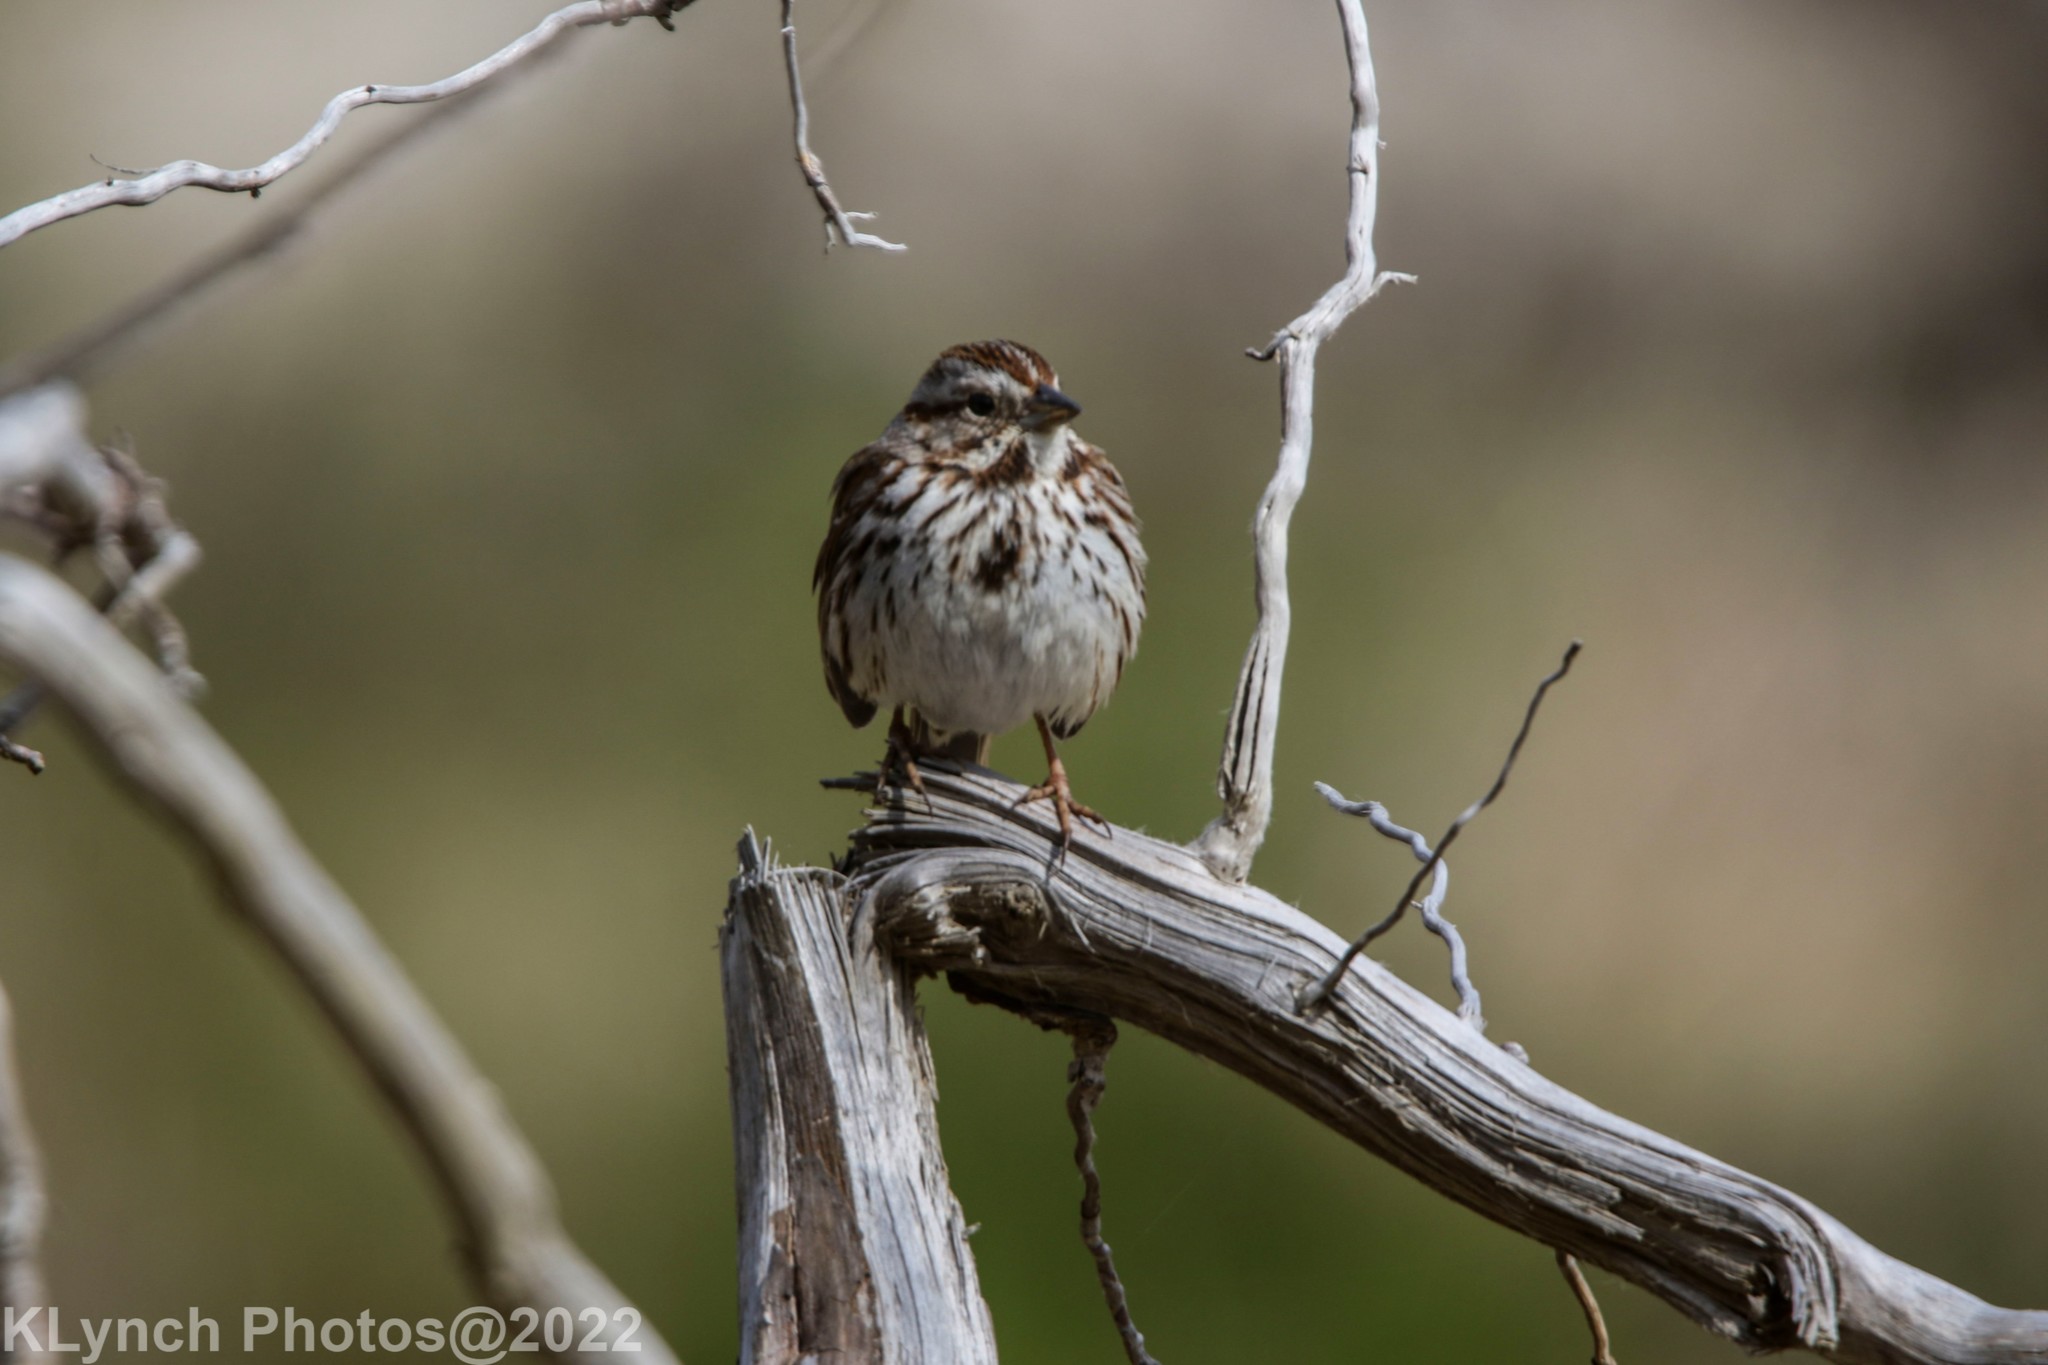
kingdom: Animalia
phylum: Chordata
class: Aves
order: Passeriformes
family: Passerellidae
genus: Melospiza
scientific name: Melospiza melodia
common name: Song sparrow
